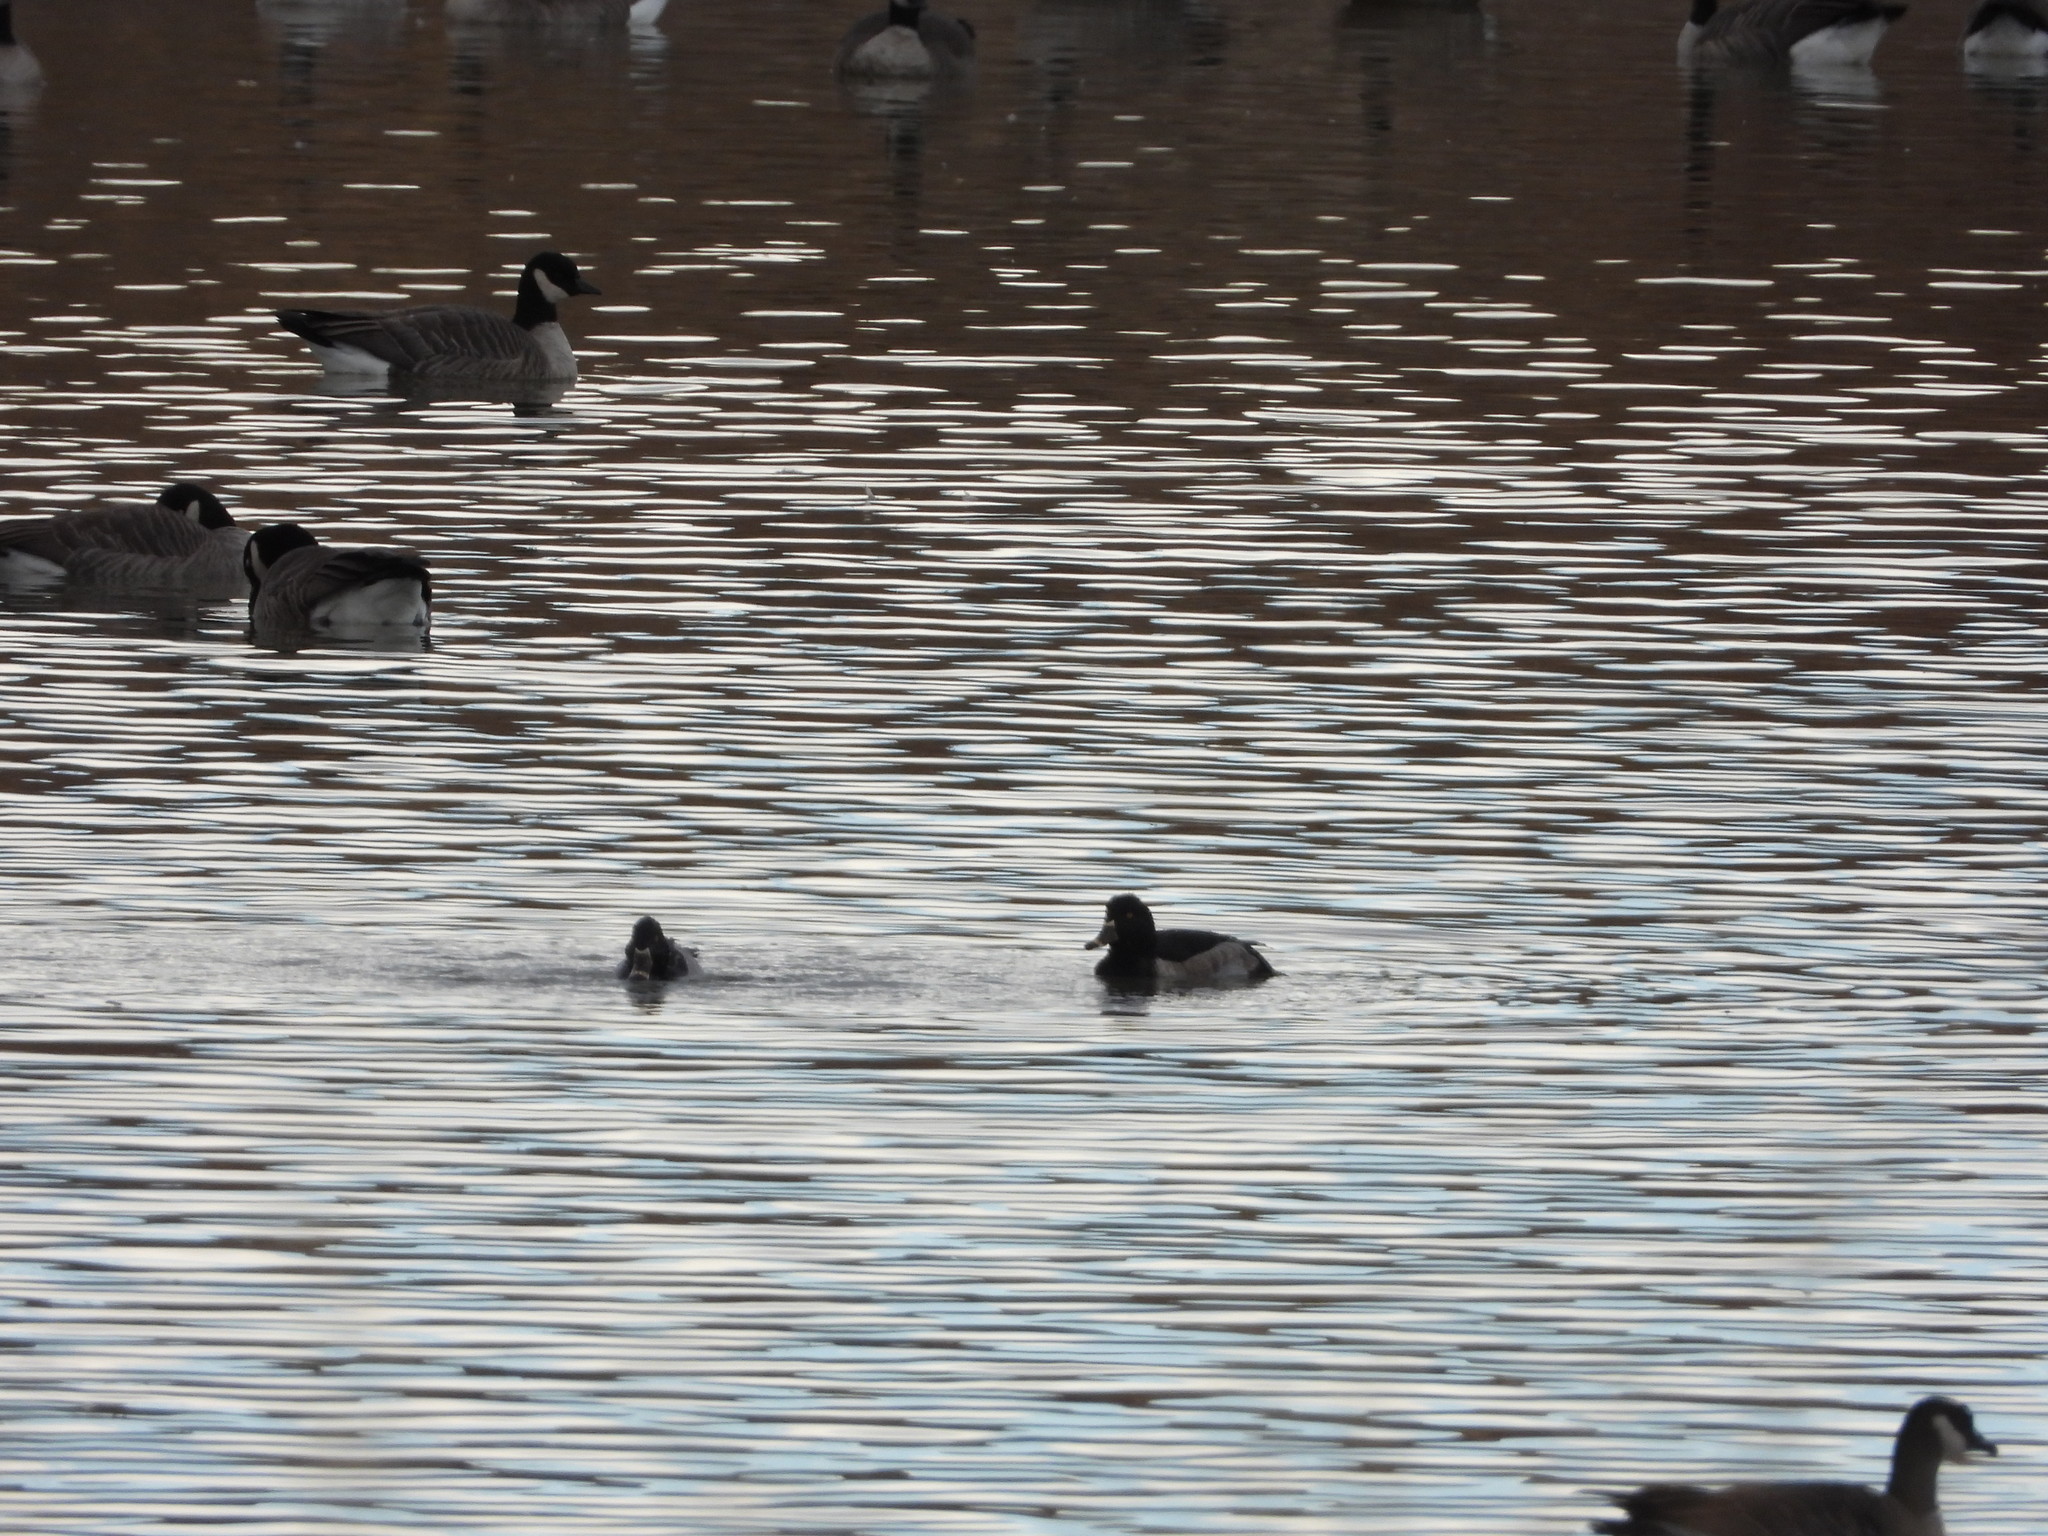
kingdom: Animalia
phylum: Chordata
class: Aves
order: Anseriformes
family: Anatidae
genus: Aythya
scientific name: Aythya collaris
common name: Ring-necked duck
